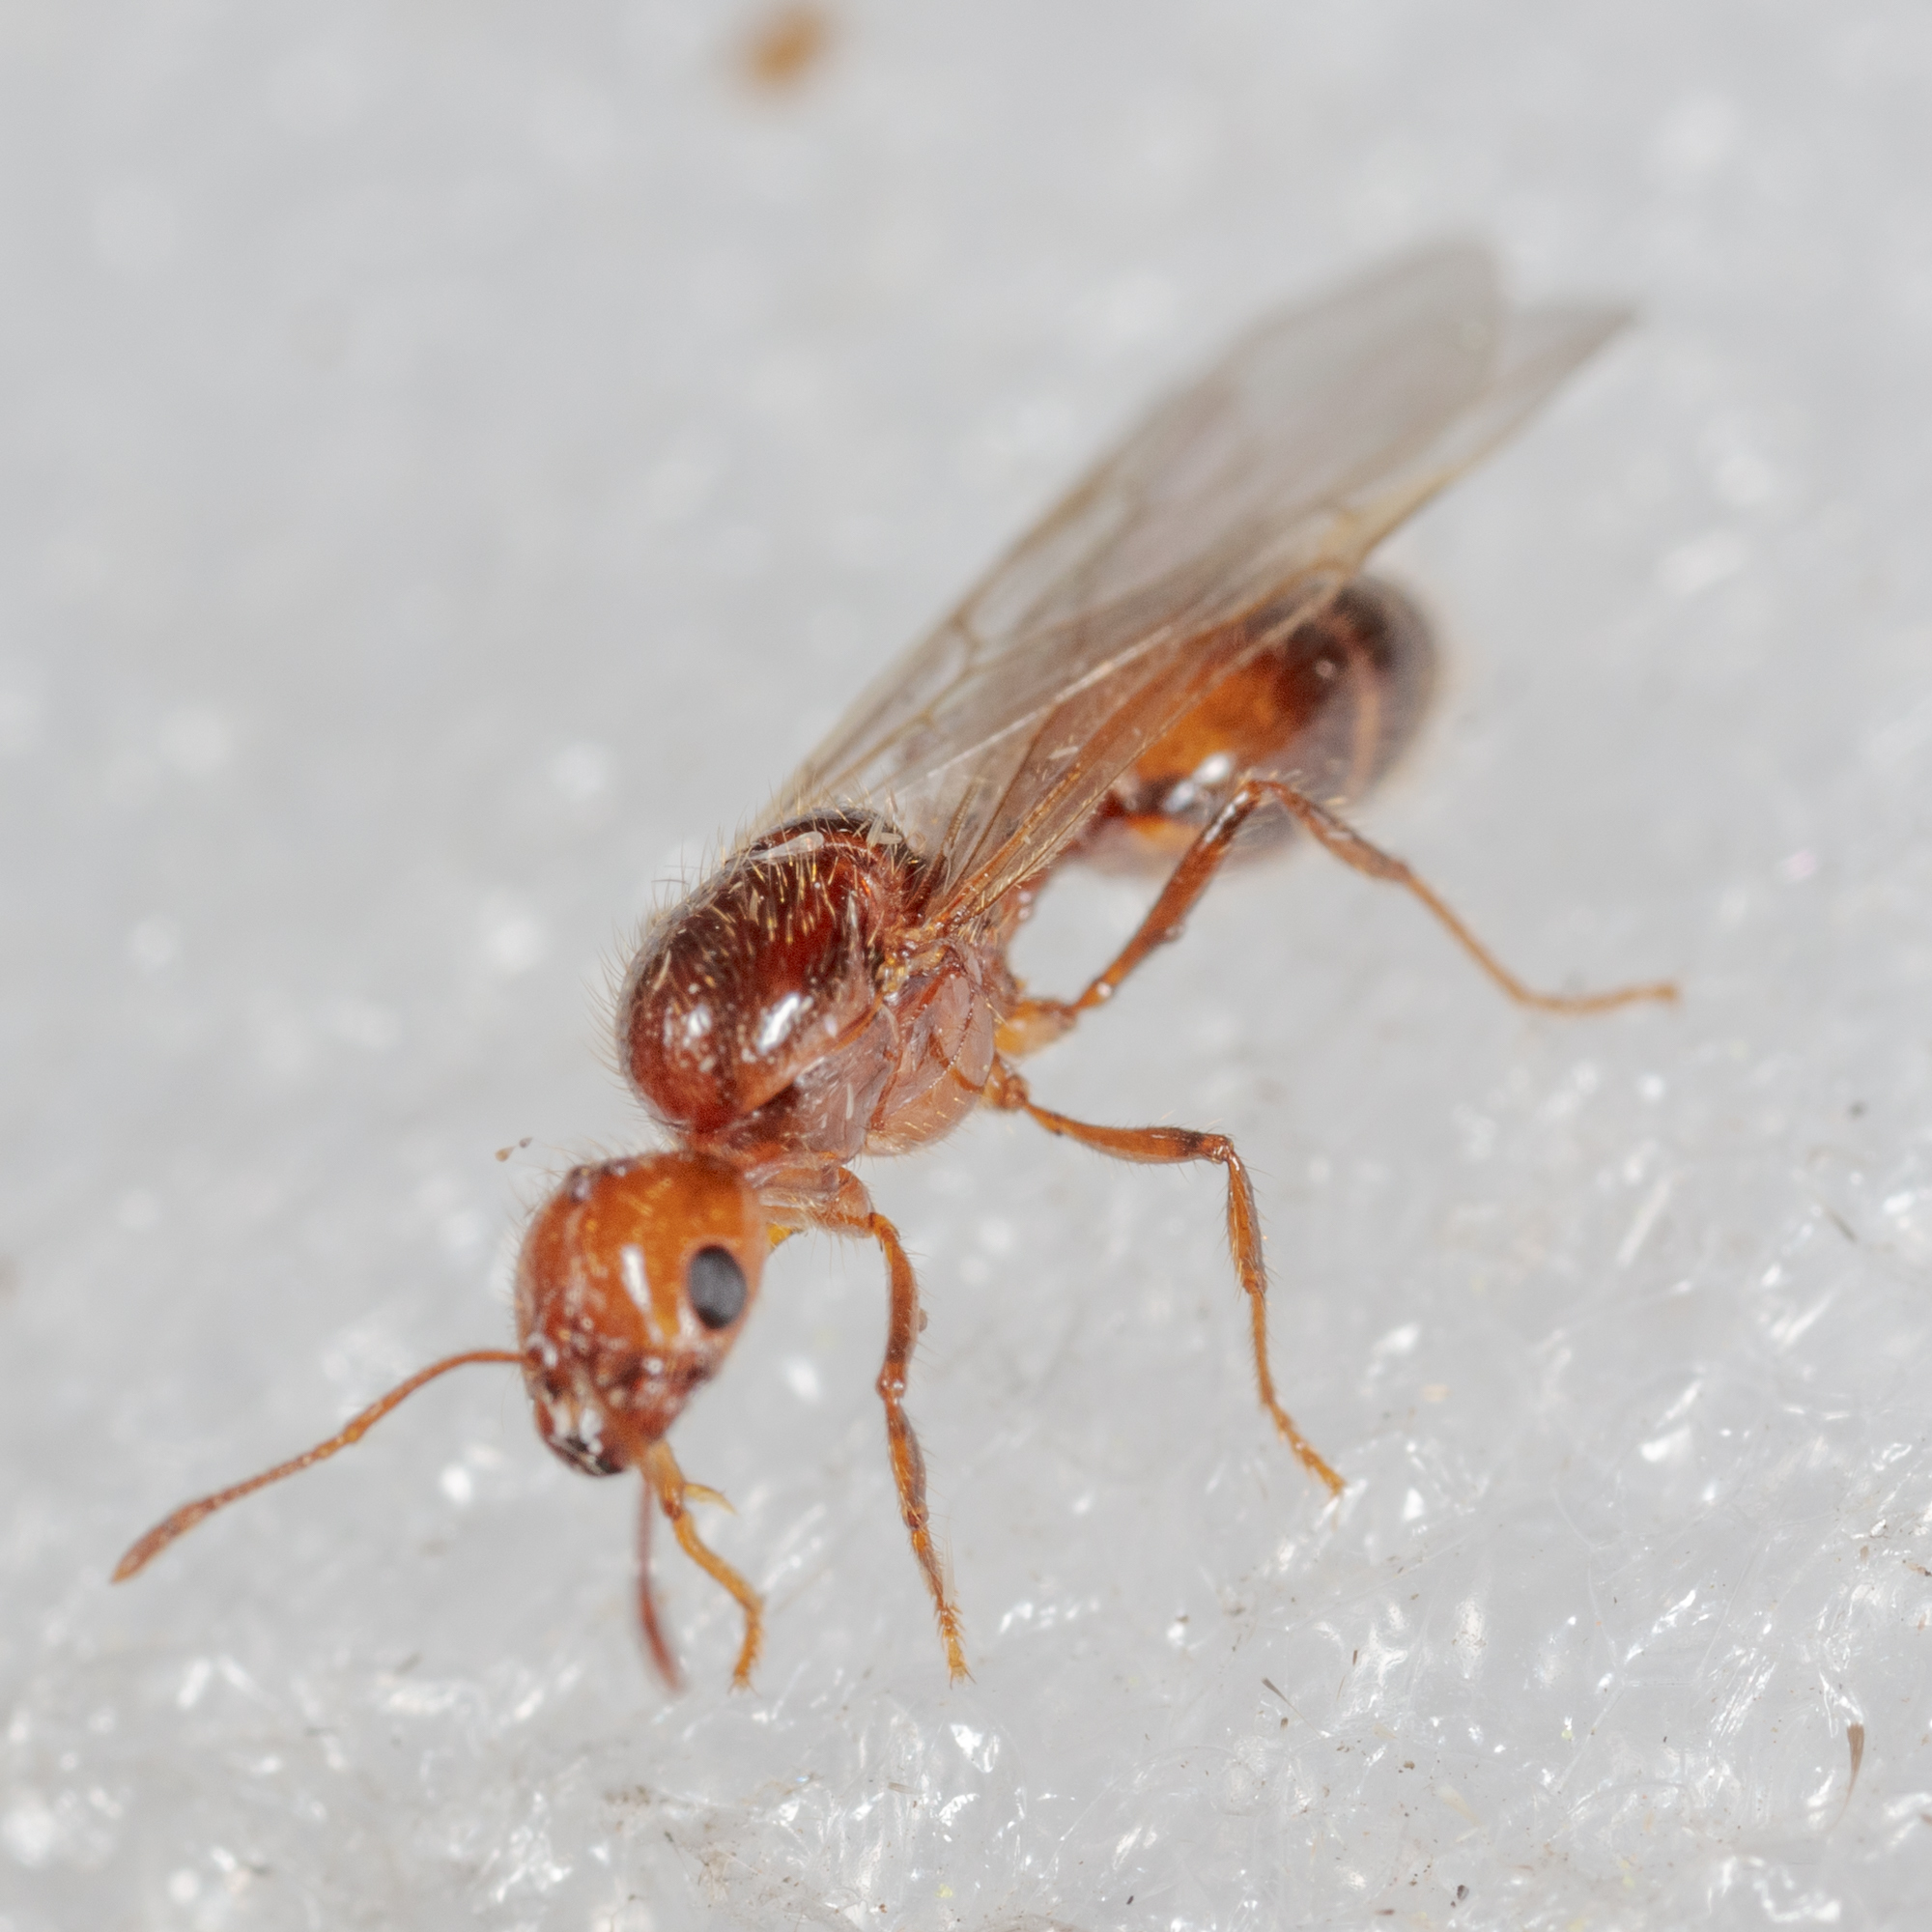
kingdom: Animalia
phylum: Arthropoda
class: Insecta
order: Hymenoptera
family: Formicidae
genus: Solenopsis
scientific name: Solenopsis
